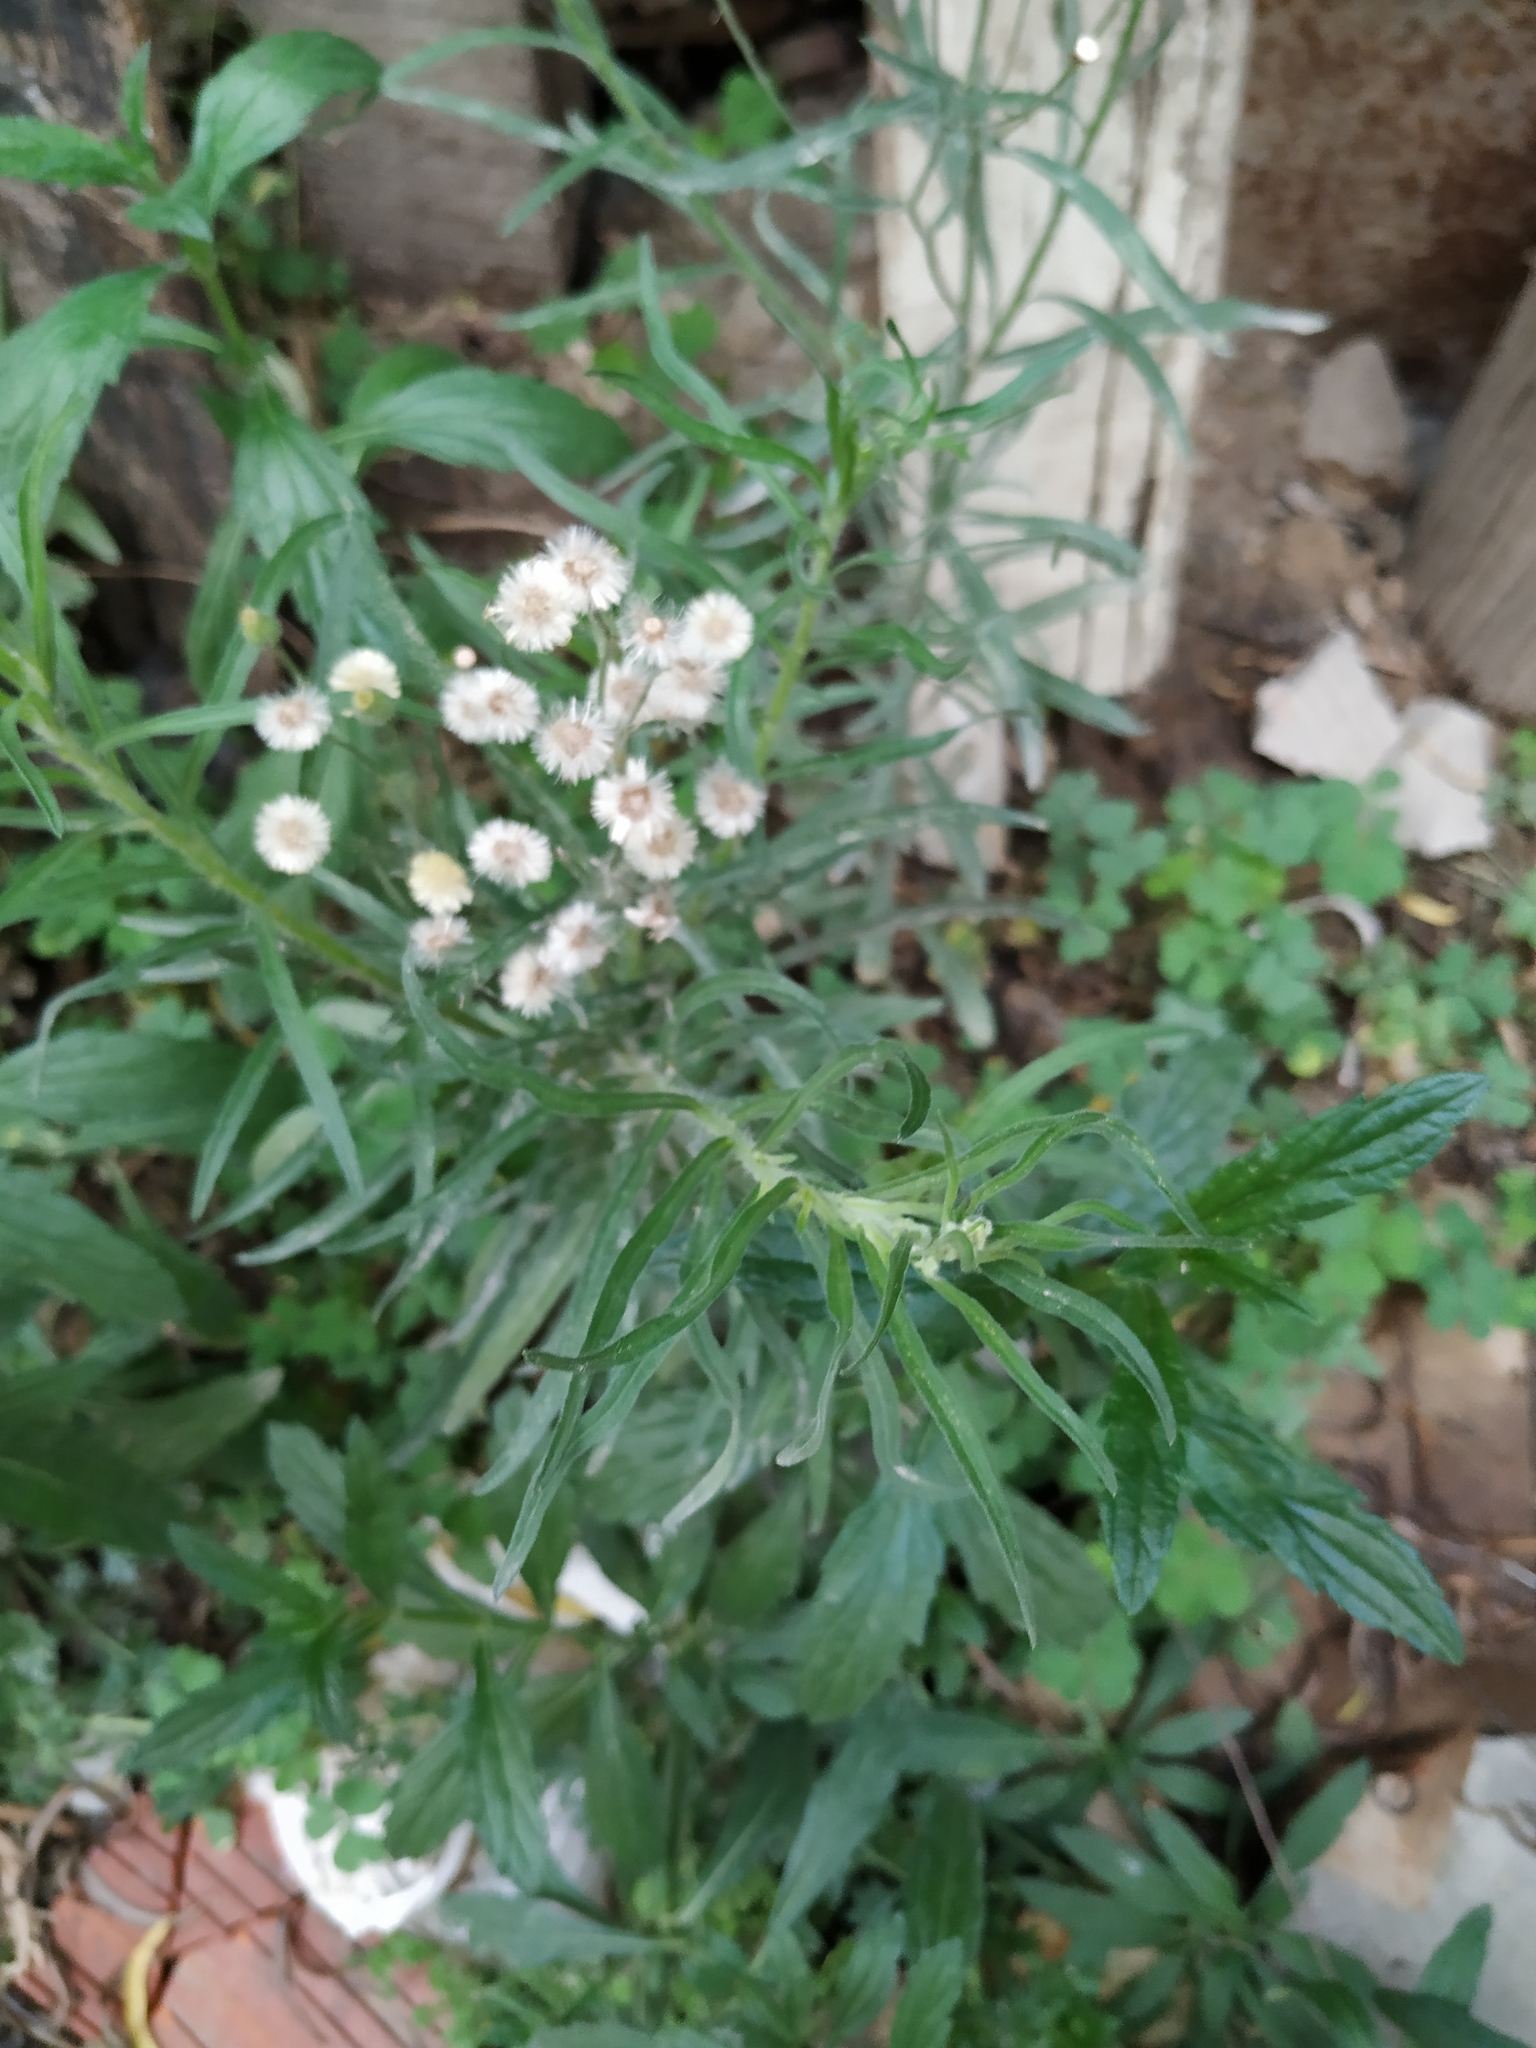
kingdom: Plantae
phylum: Tracheophyta
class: Magnoliopsida
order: Asterales
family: Asteraceae
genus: Erigeron
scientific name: Erigeron bonariensis
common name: Argentine fleabane
